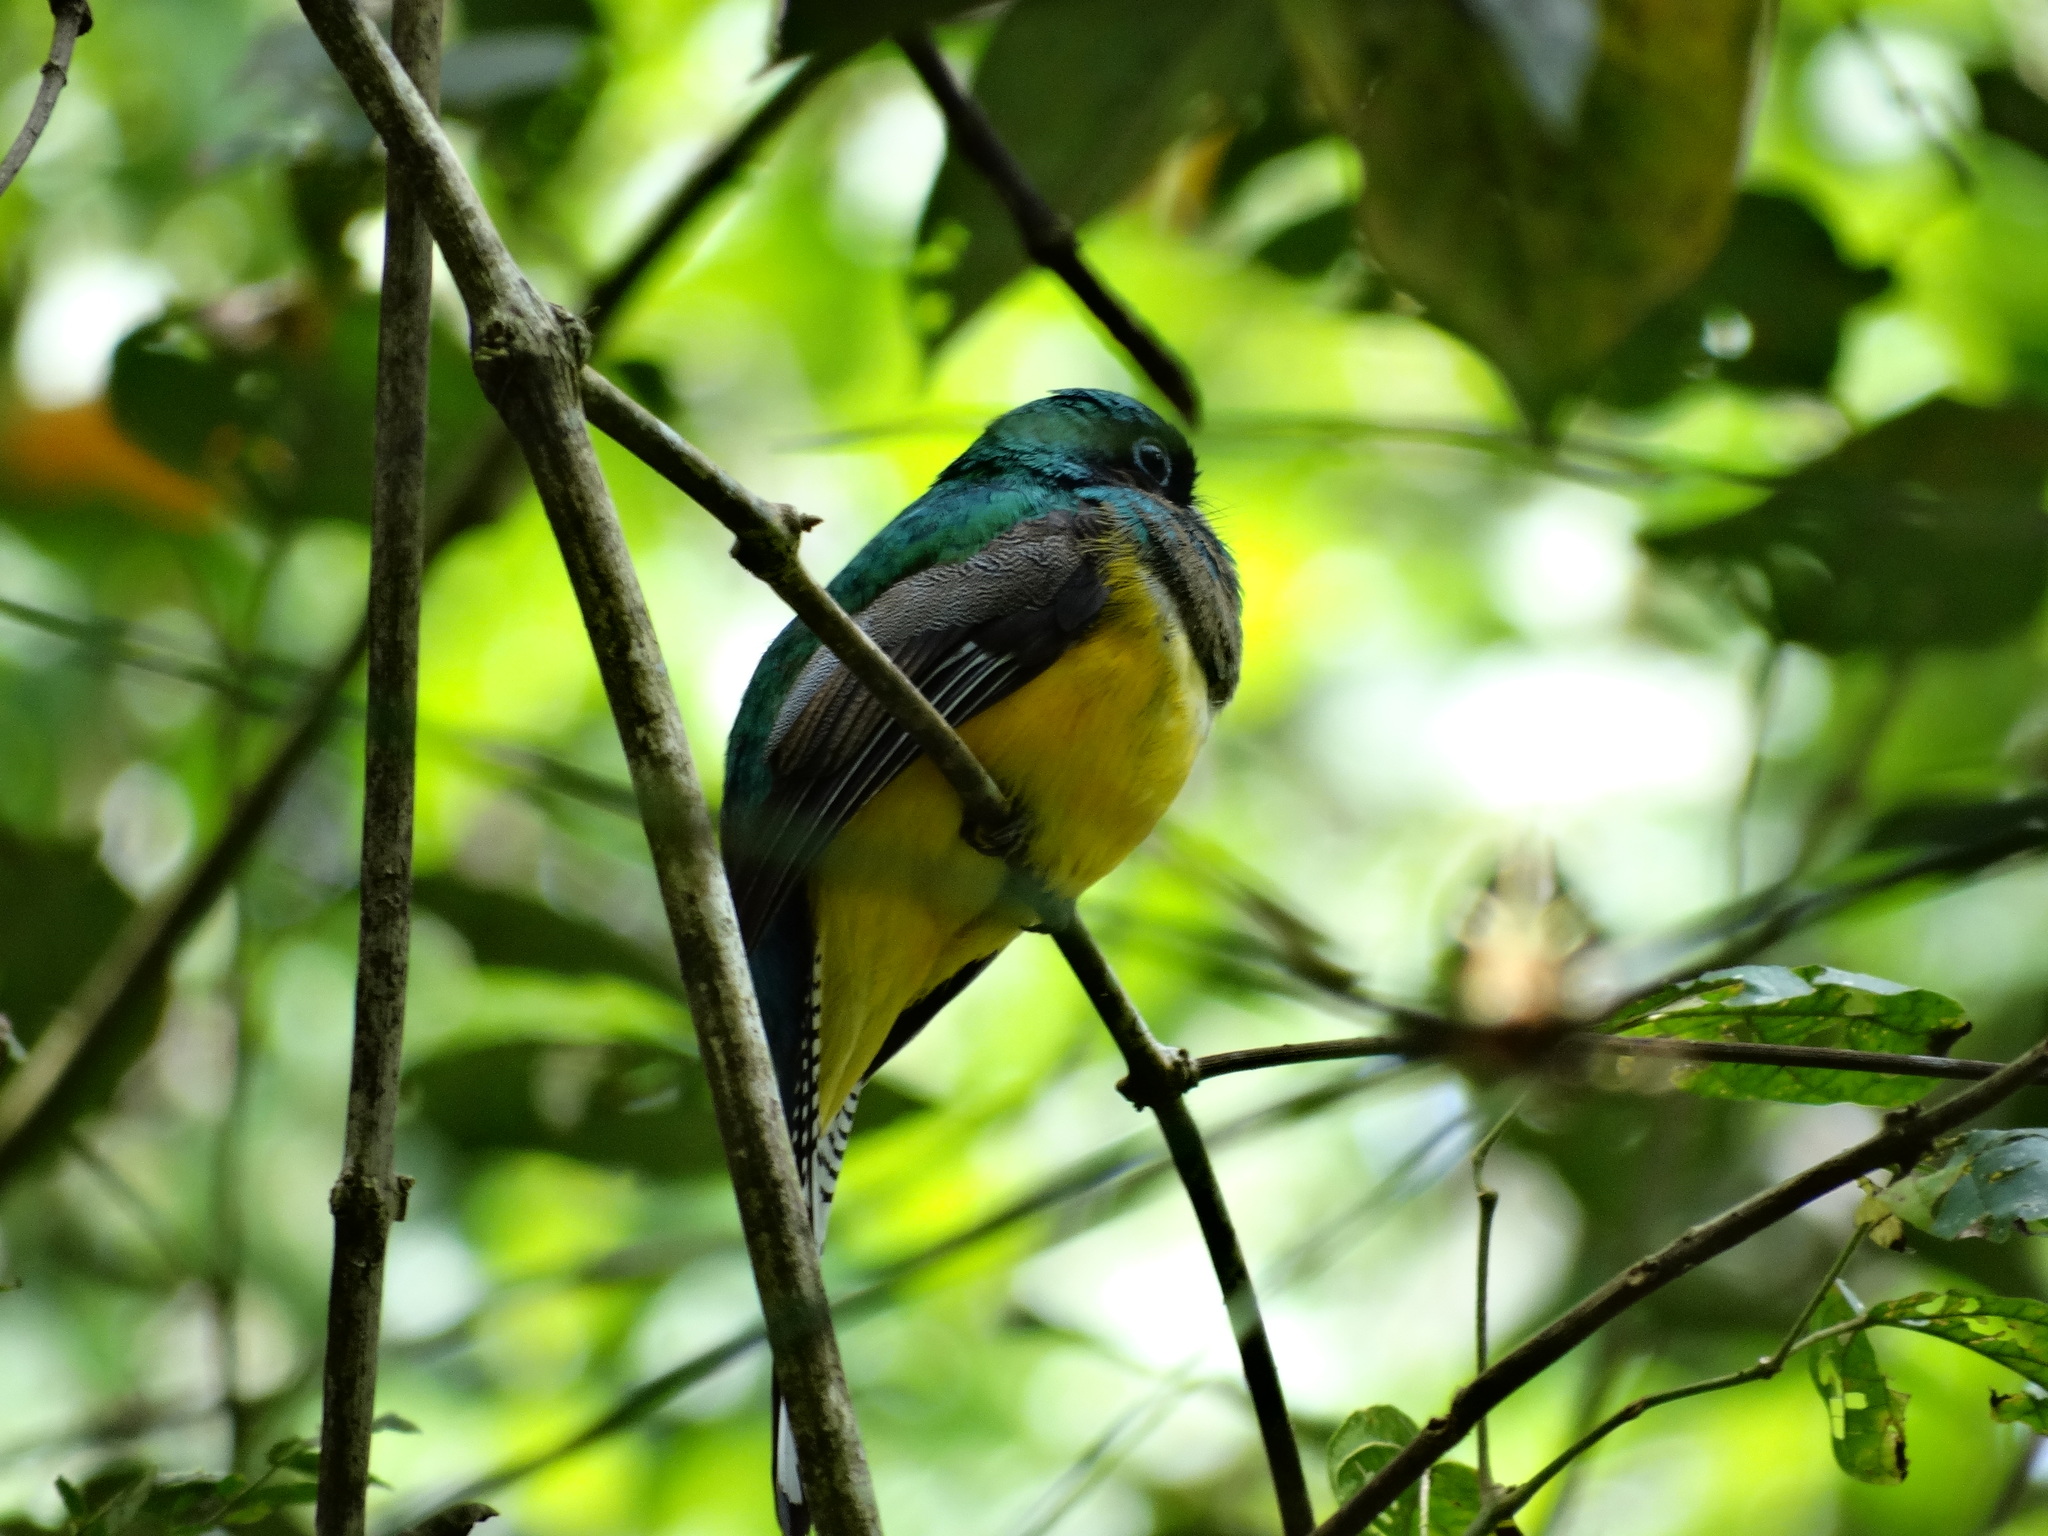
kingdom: Animalia
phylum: Chordata
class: Aves
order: Trogoniformes
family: Trogonidae
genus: Trogon
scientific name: Trogon rufus
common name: Black-throated trogon
